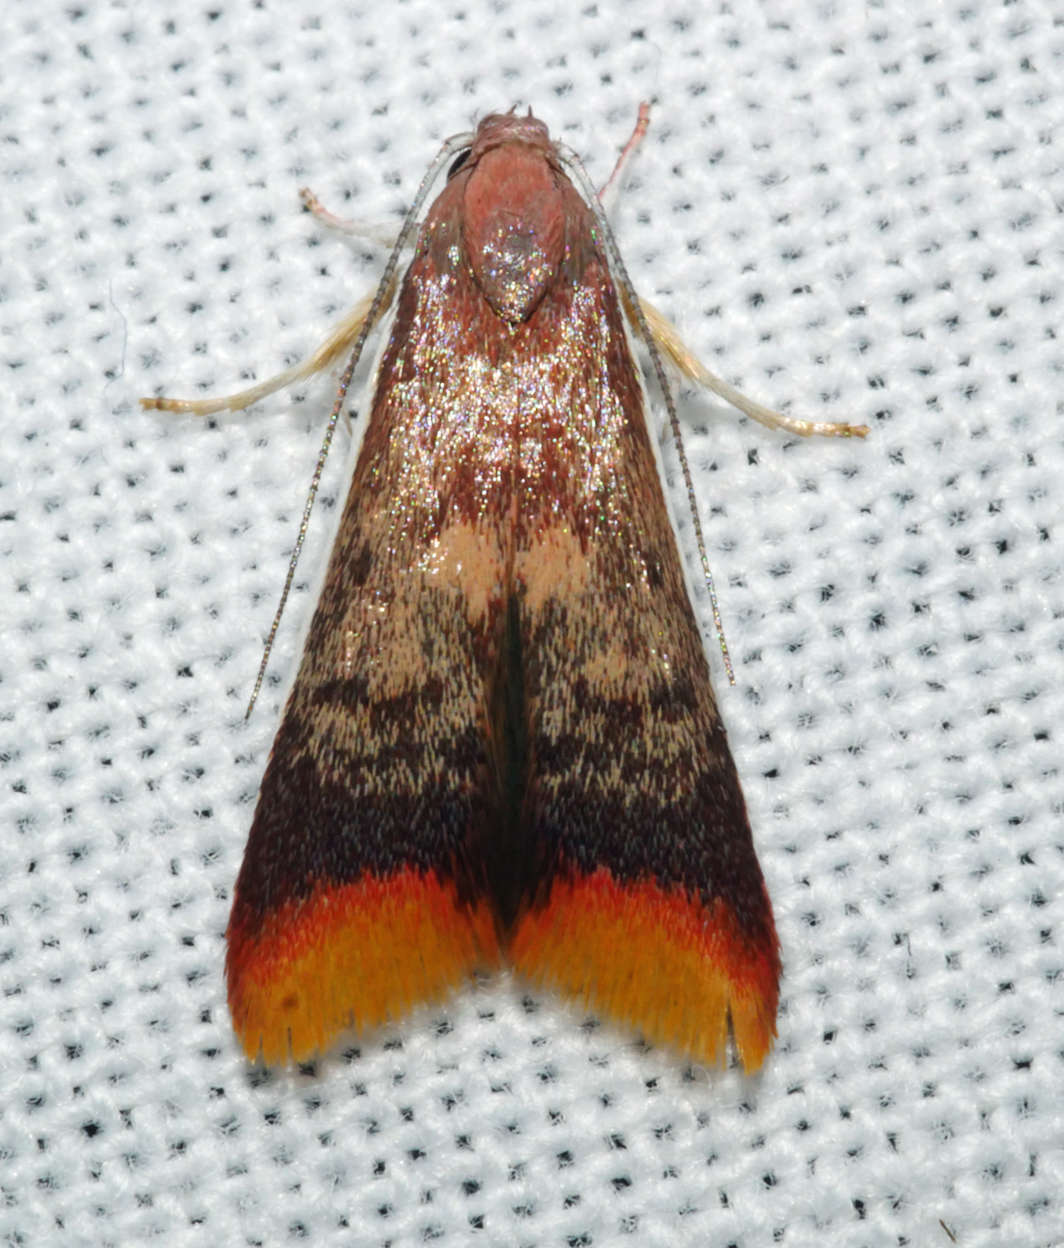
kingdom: Animalia
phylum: Arthropoda
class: Insecta
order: Lepidoptera
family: Oecophoridae
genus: Hemibela
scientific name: Hemibela callista
